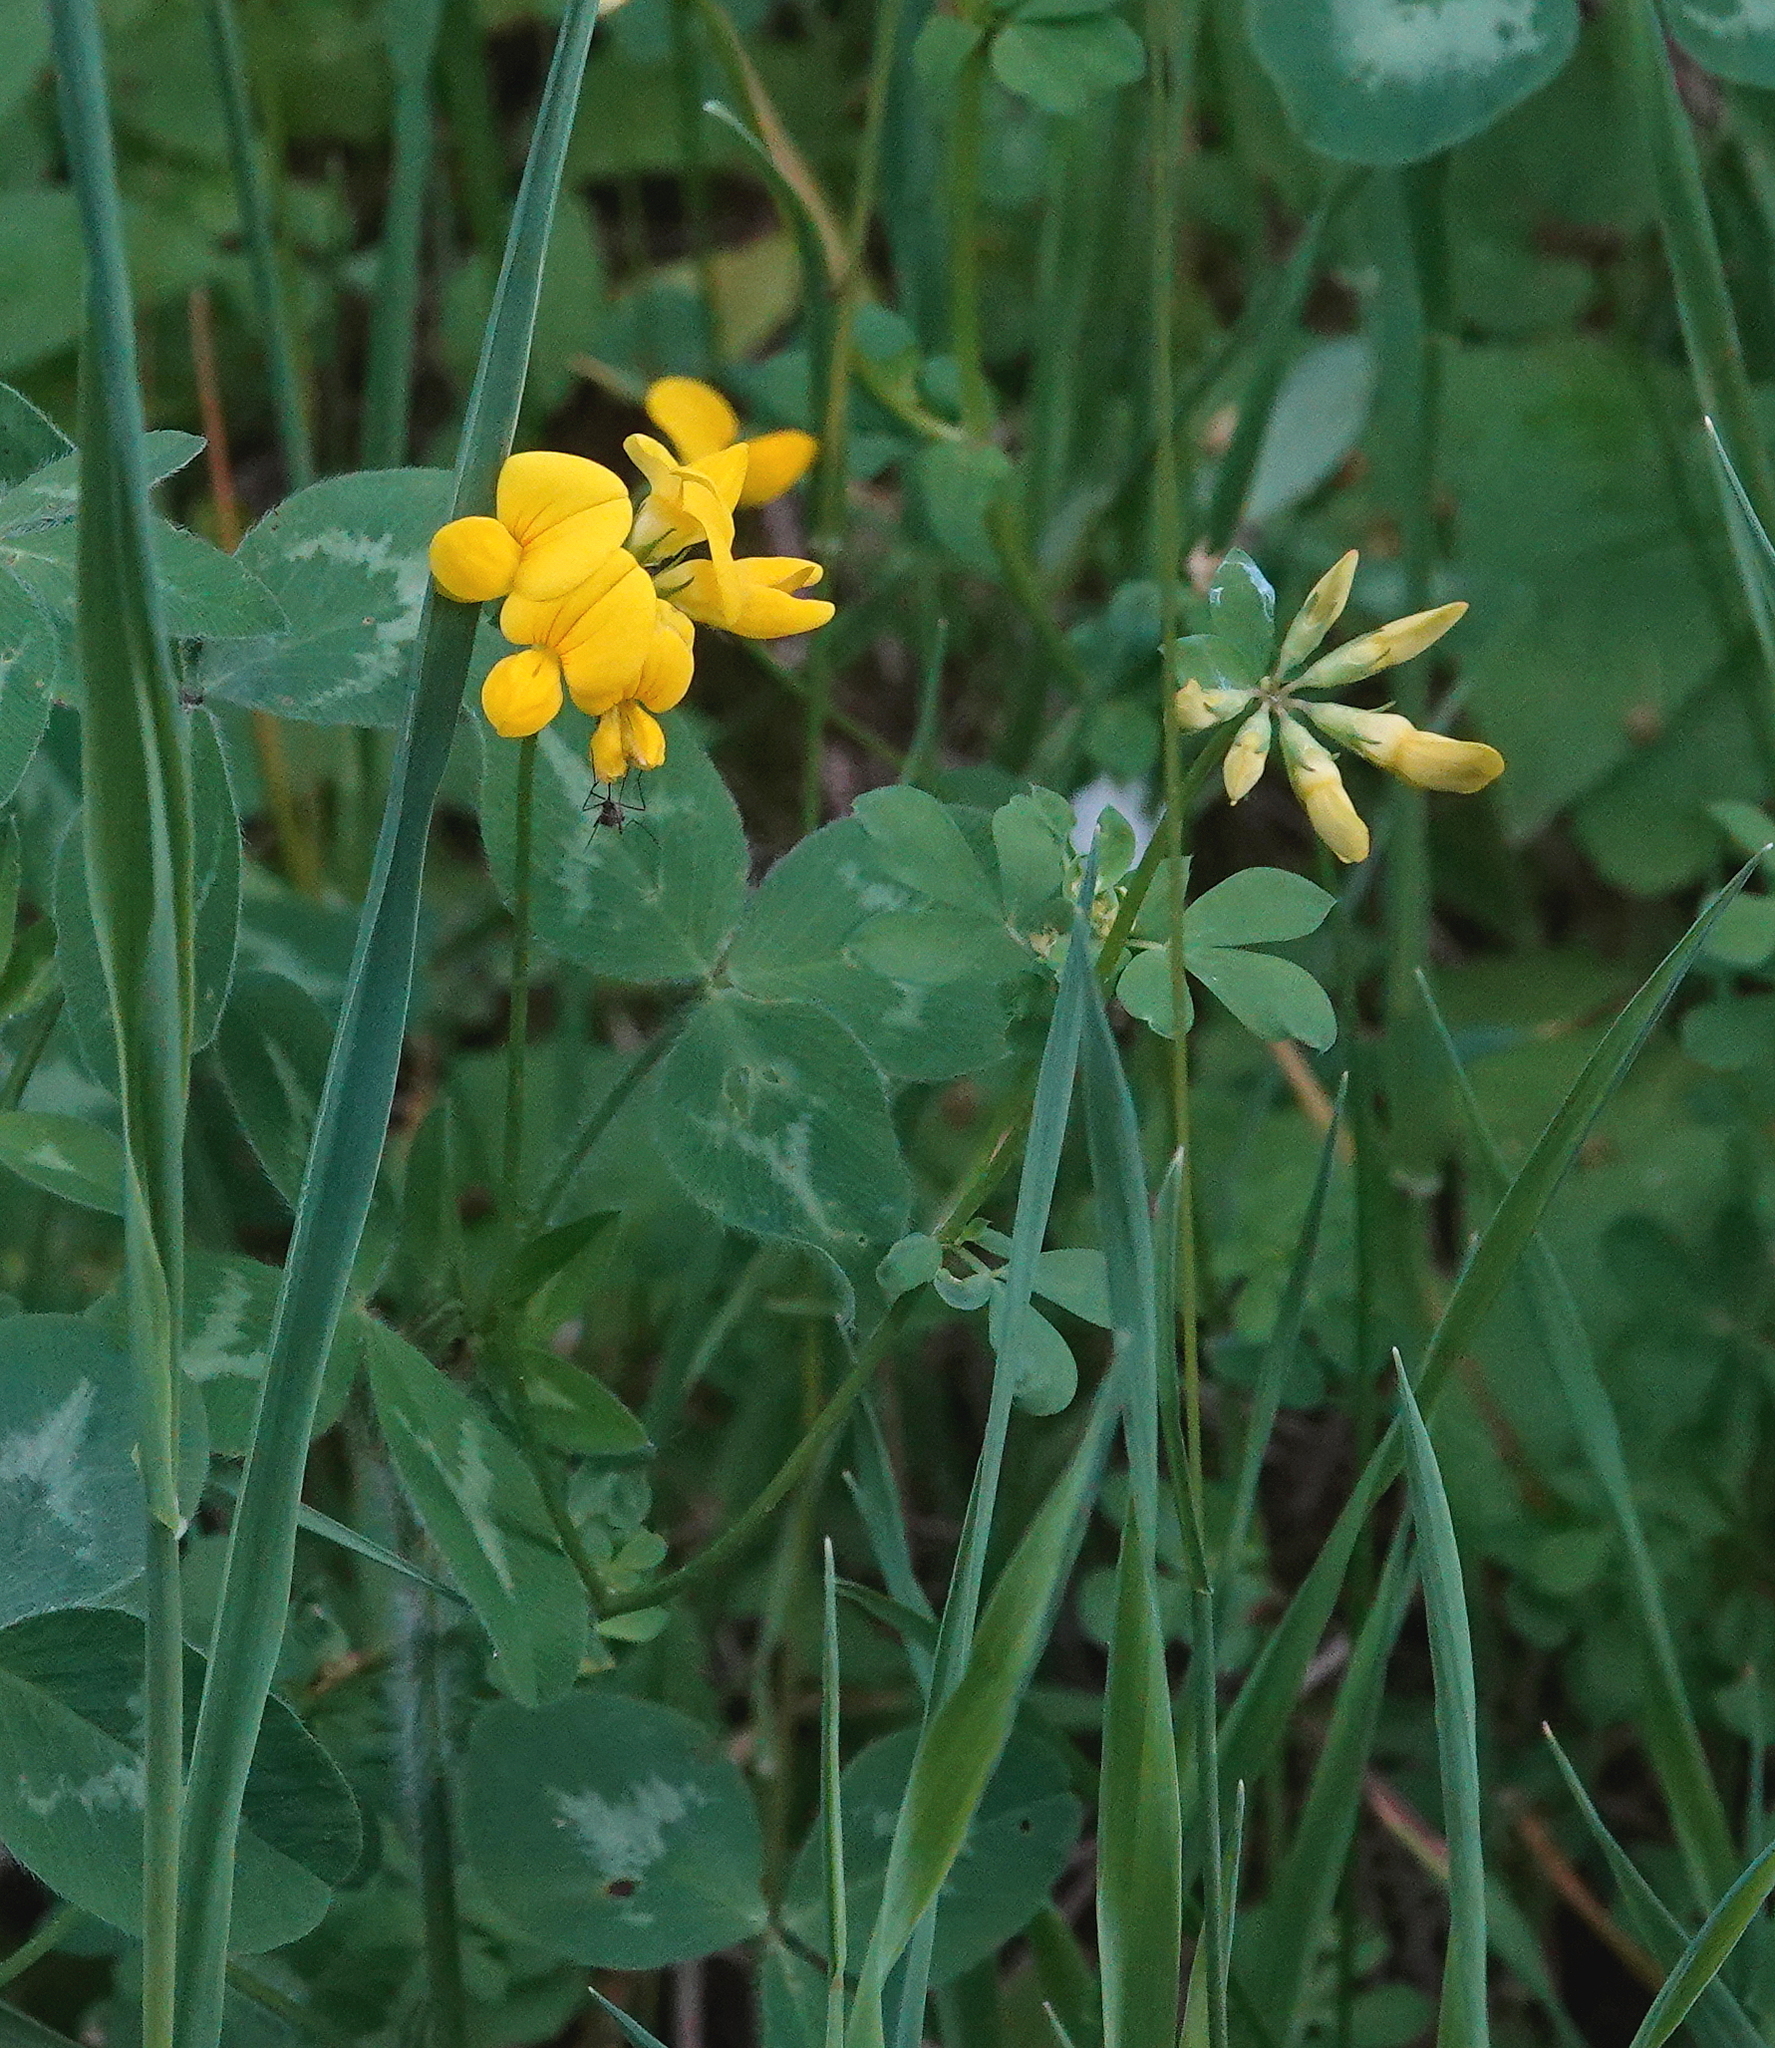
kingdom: Plantae
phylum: Tracheophyta
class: Magnoliopsida
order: Fabales
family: Fabaceae
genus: Lotus
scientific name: Lotus corniculatus
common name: Common bird's-foot-trefoil
